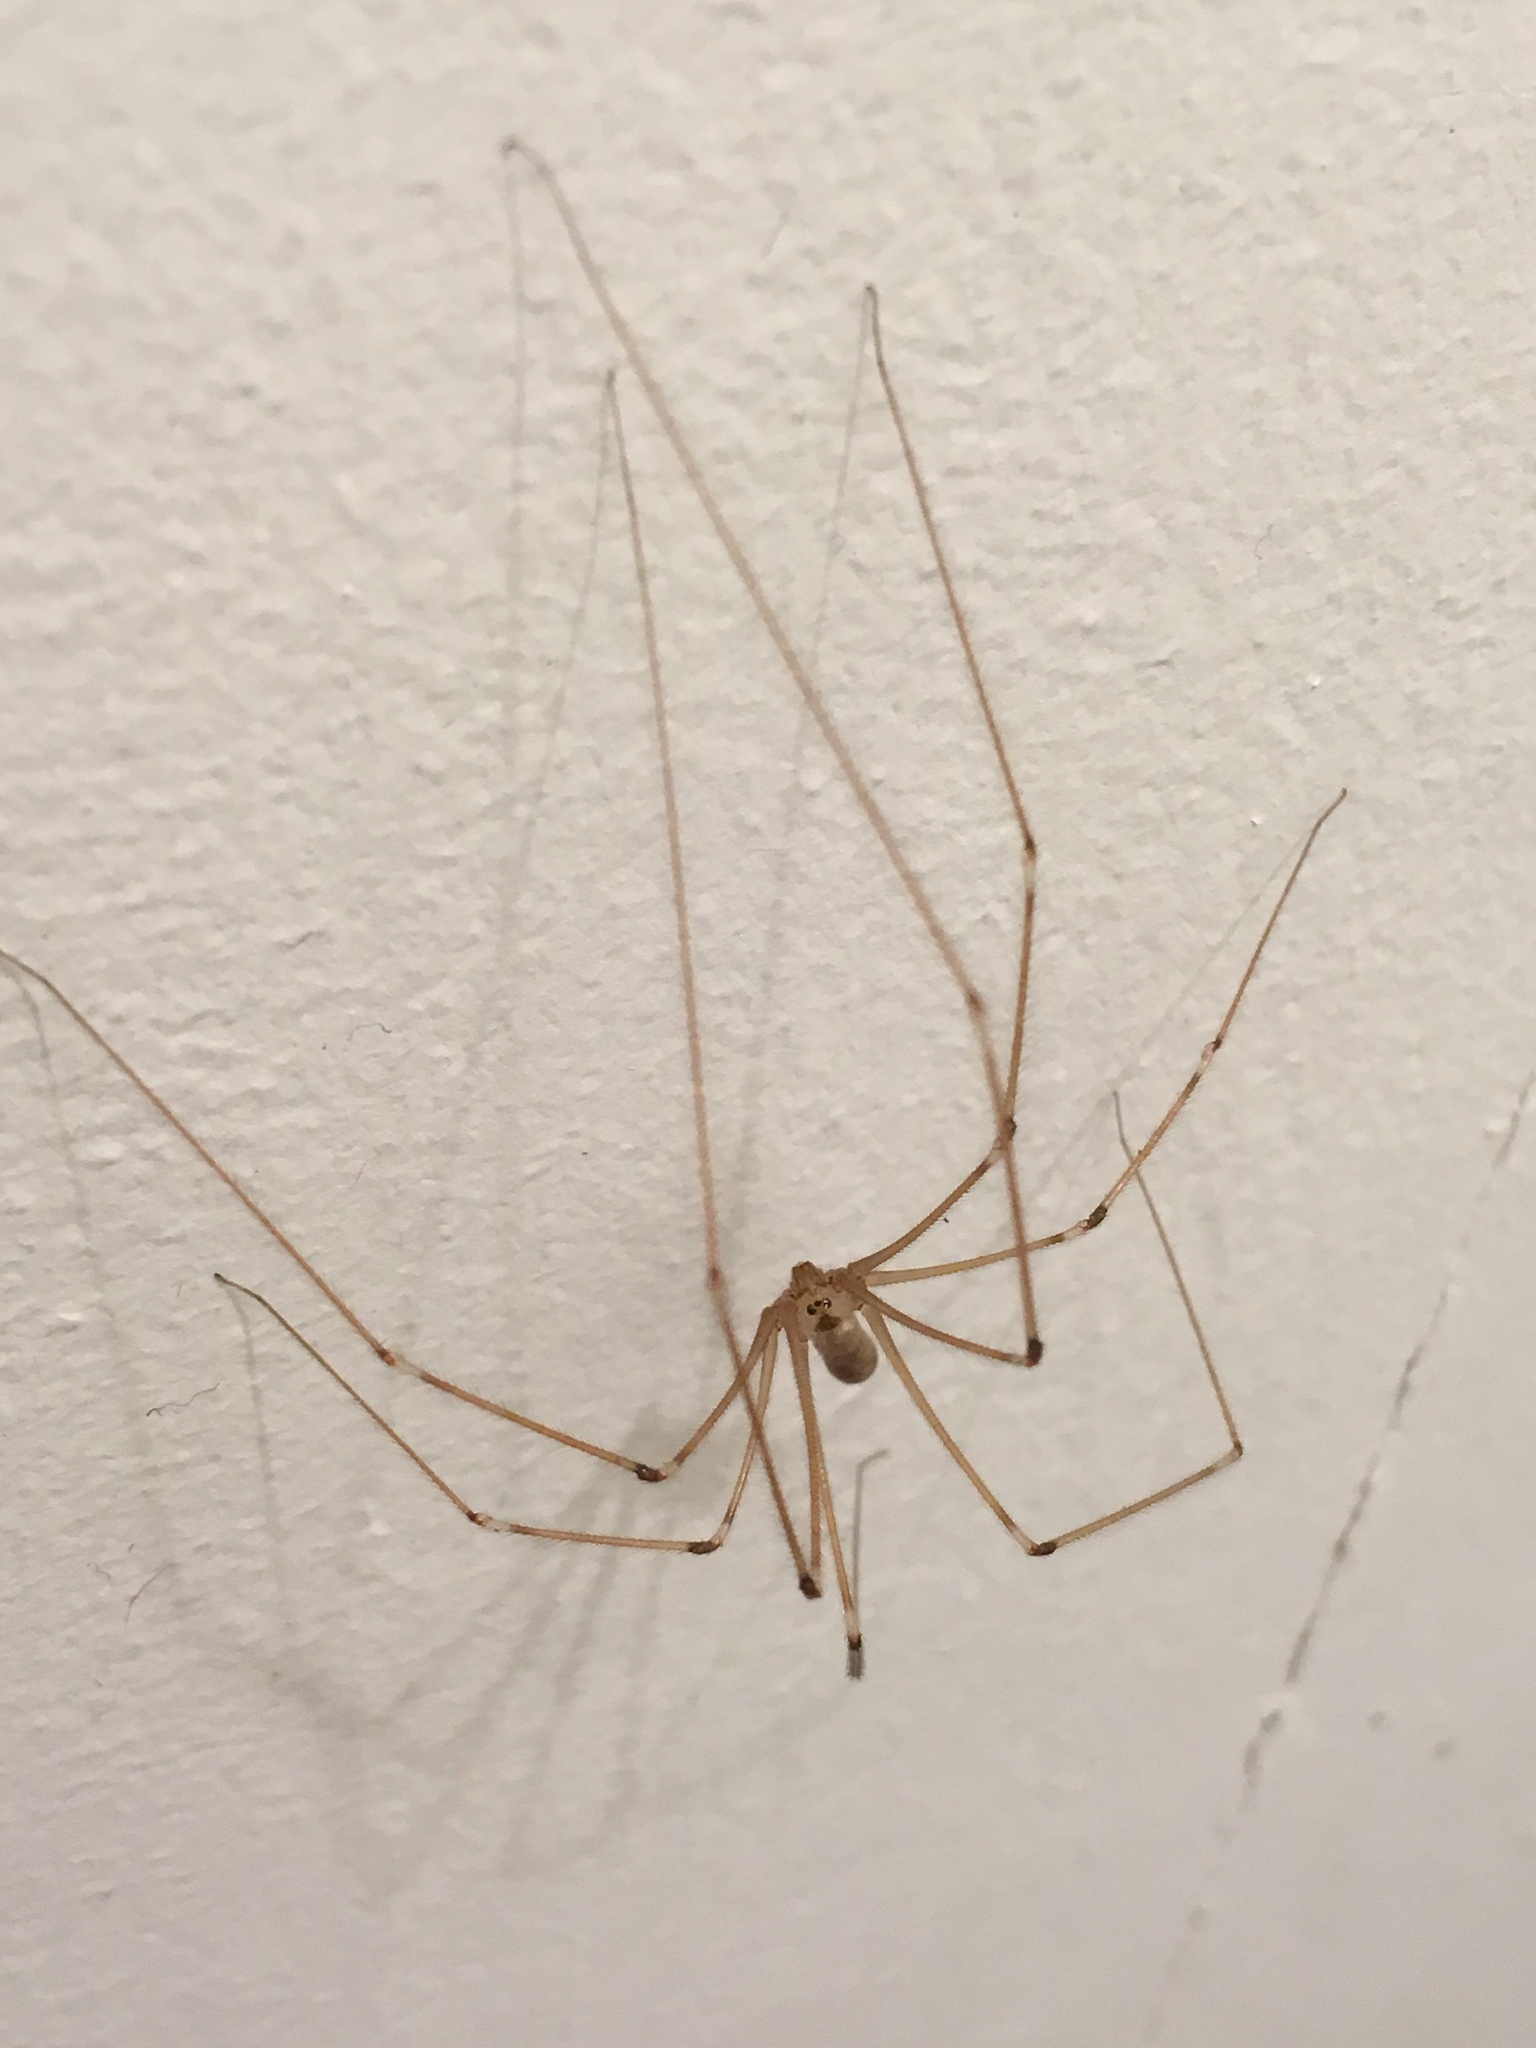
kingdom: Animalia
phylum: Arthropoda
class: Arachnida
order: Araneae
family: Pholcidae
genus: Pholcus
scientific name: Pholcus phalangioides
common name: Longbodied cellar spider
